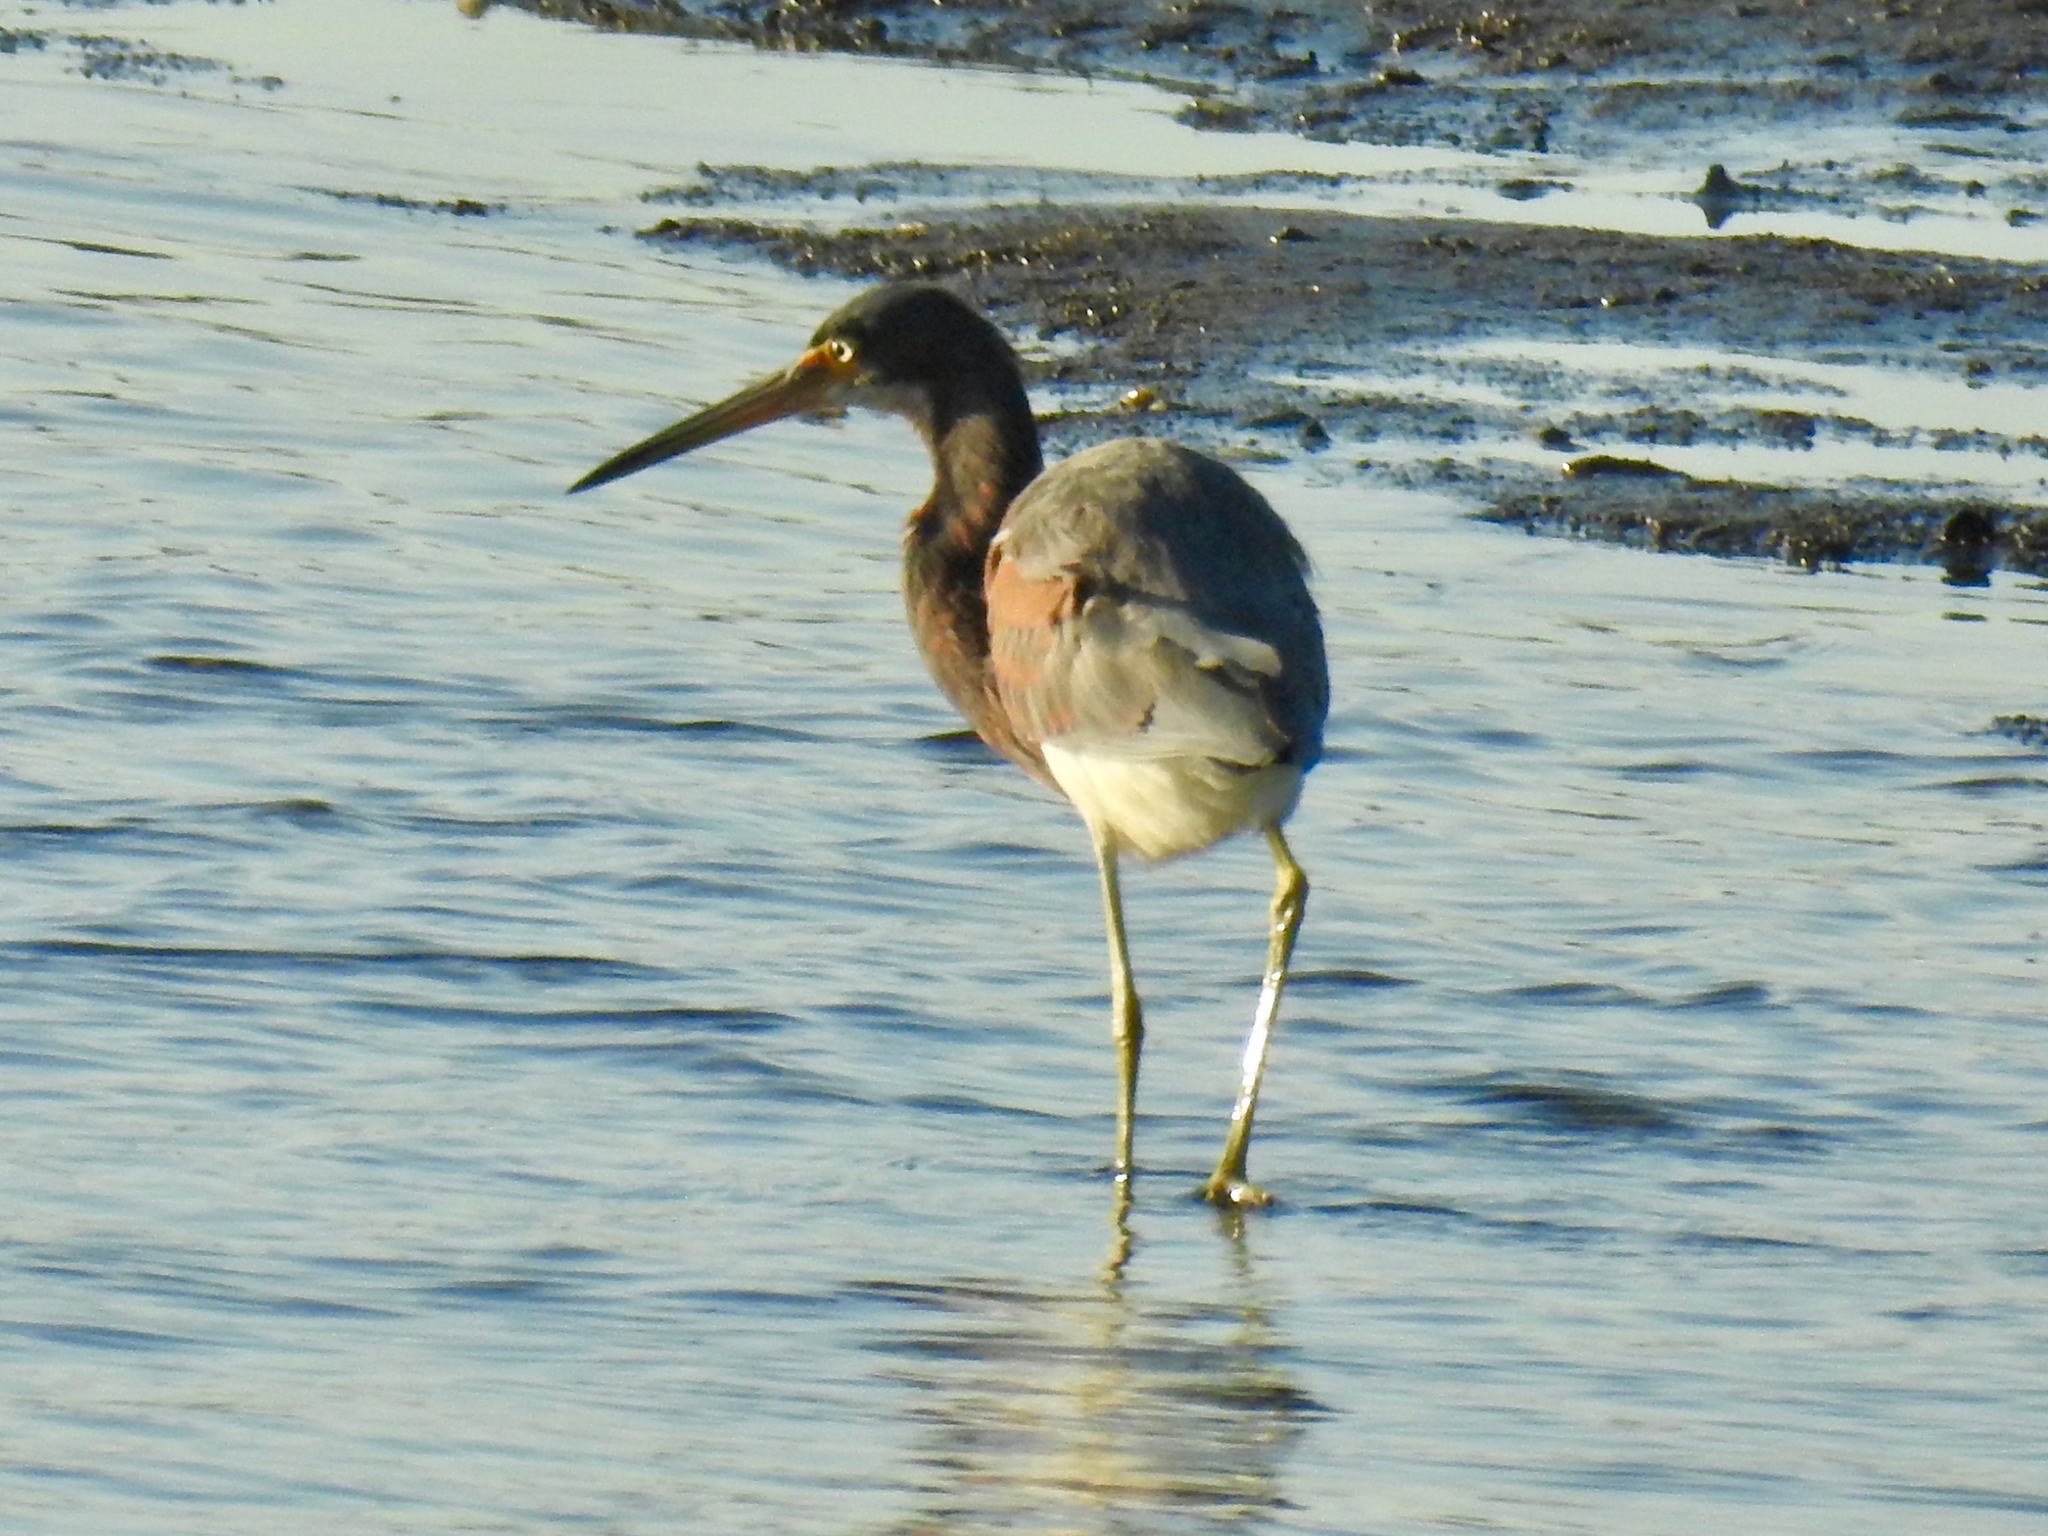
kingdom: Animalia
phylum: Chordata
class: Aves
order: Pelecaniformes
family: Ardeidae
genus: Egretta
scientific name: Egretta tricolor
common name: Tricolored heron
